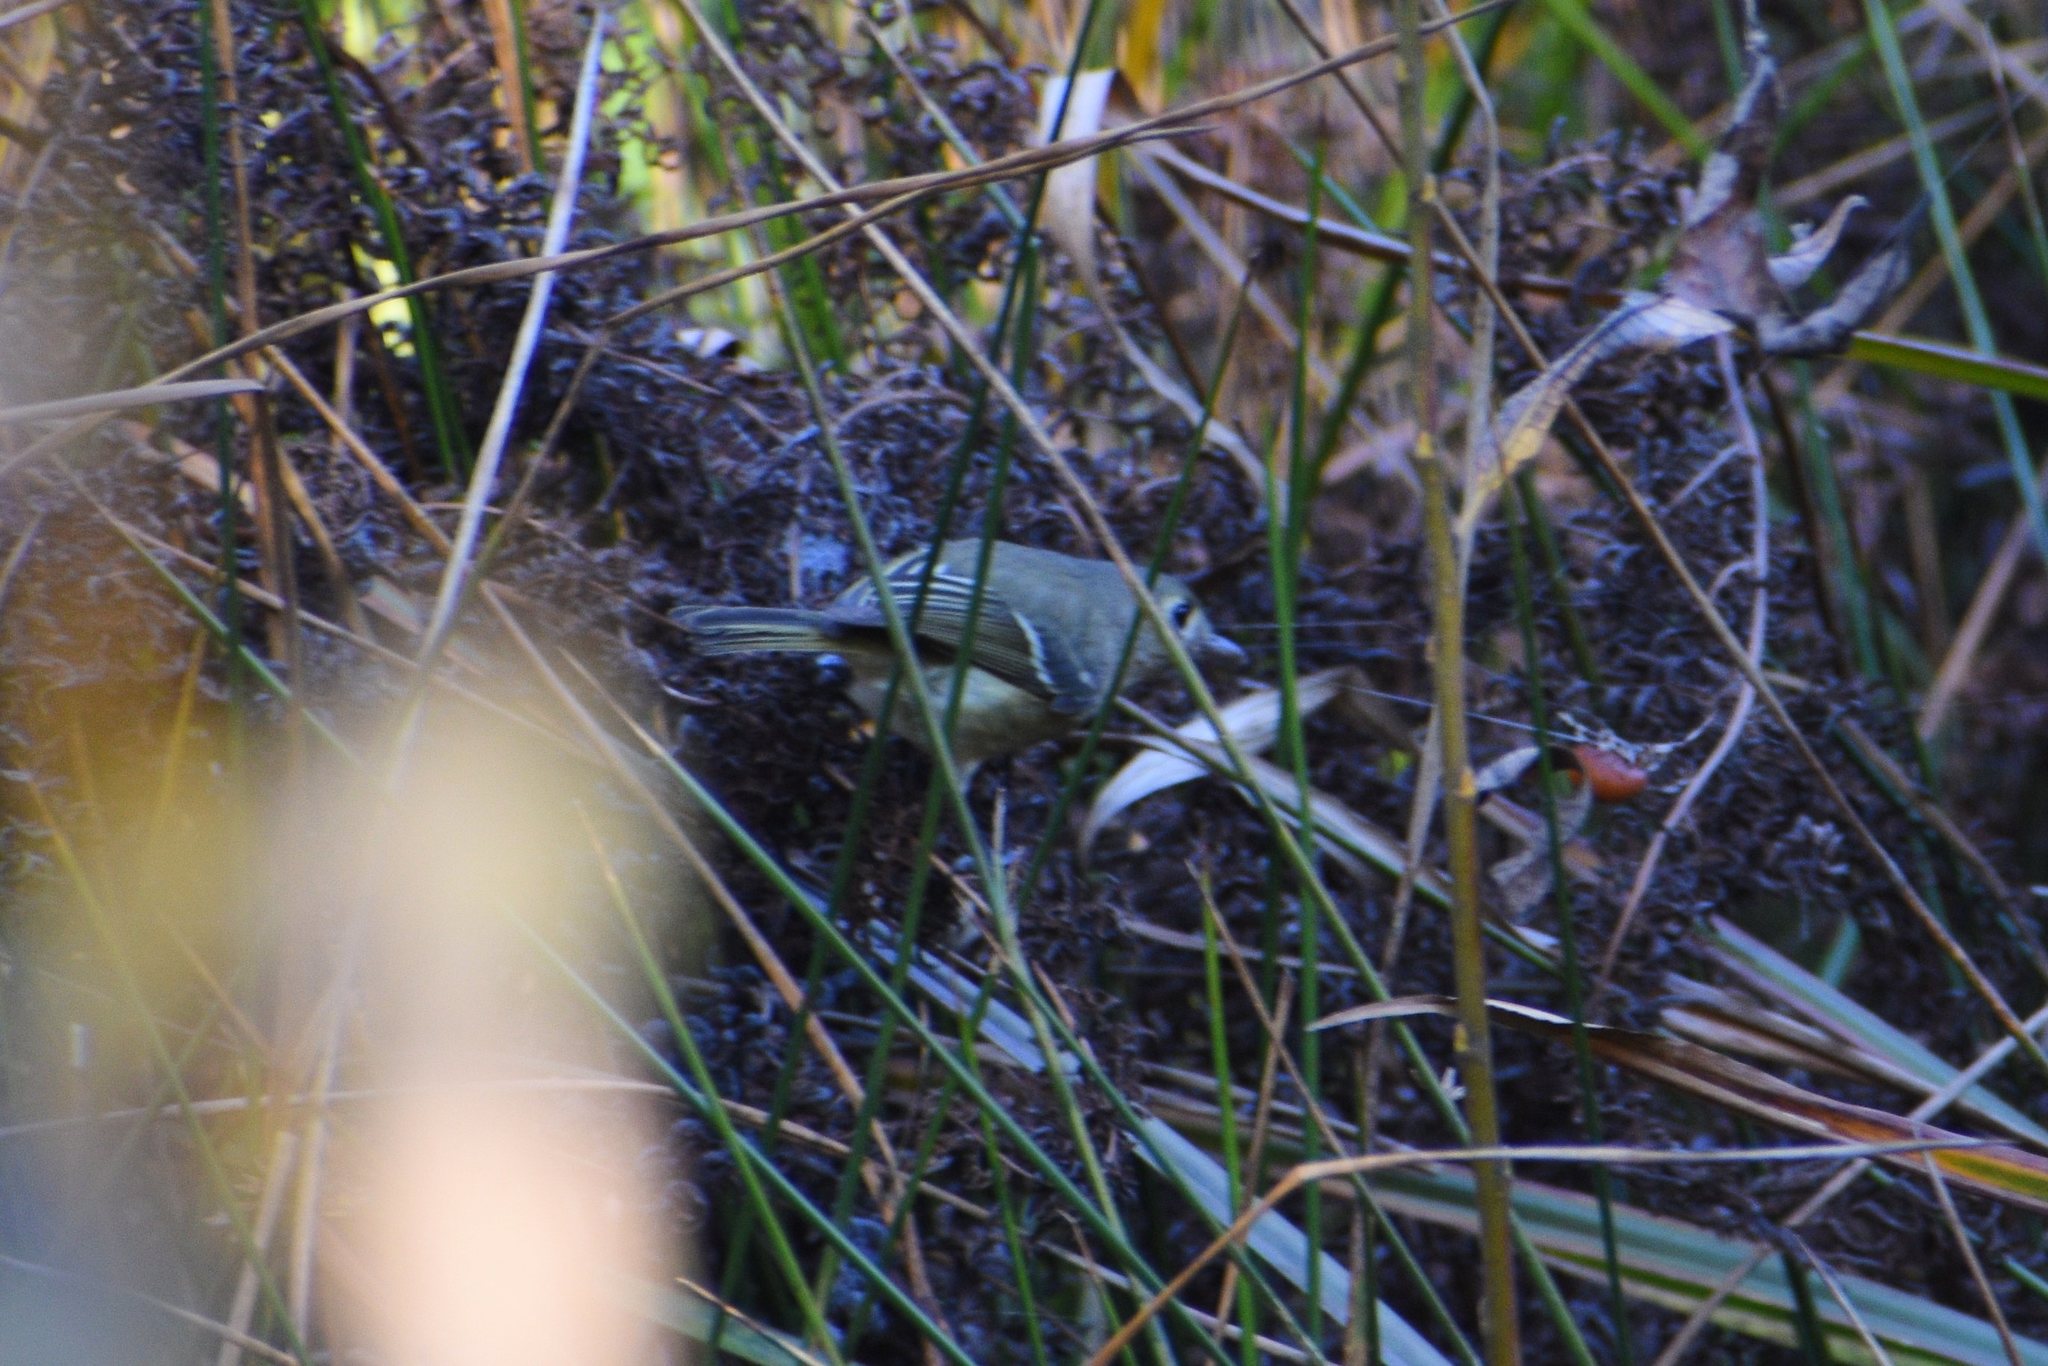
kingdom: Animalia
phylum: Chordata
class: Aves
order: Passeriformes
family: Vireonidae
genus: Vireo
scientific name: Vireo huttoni
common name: Hutton's vireo
